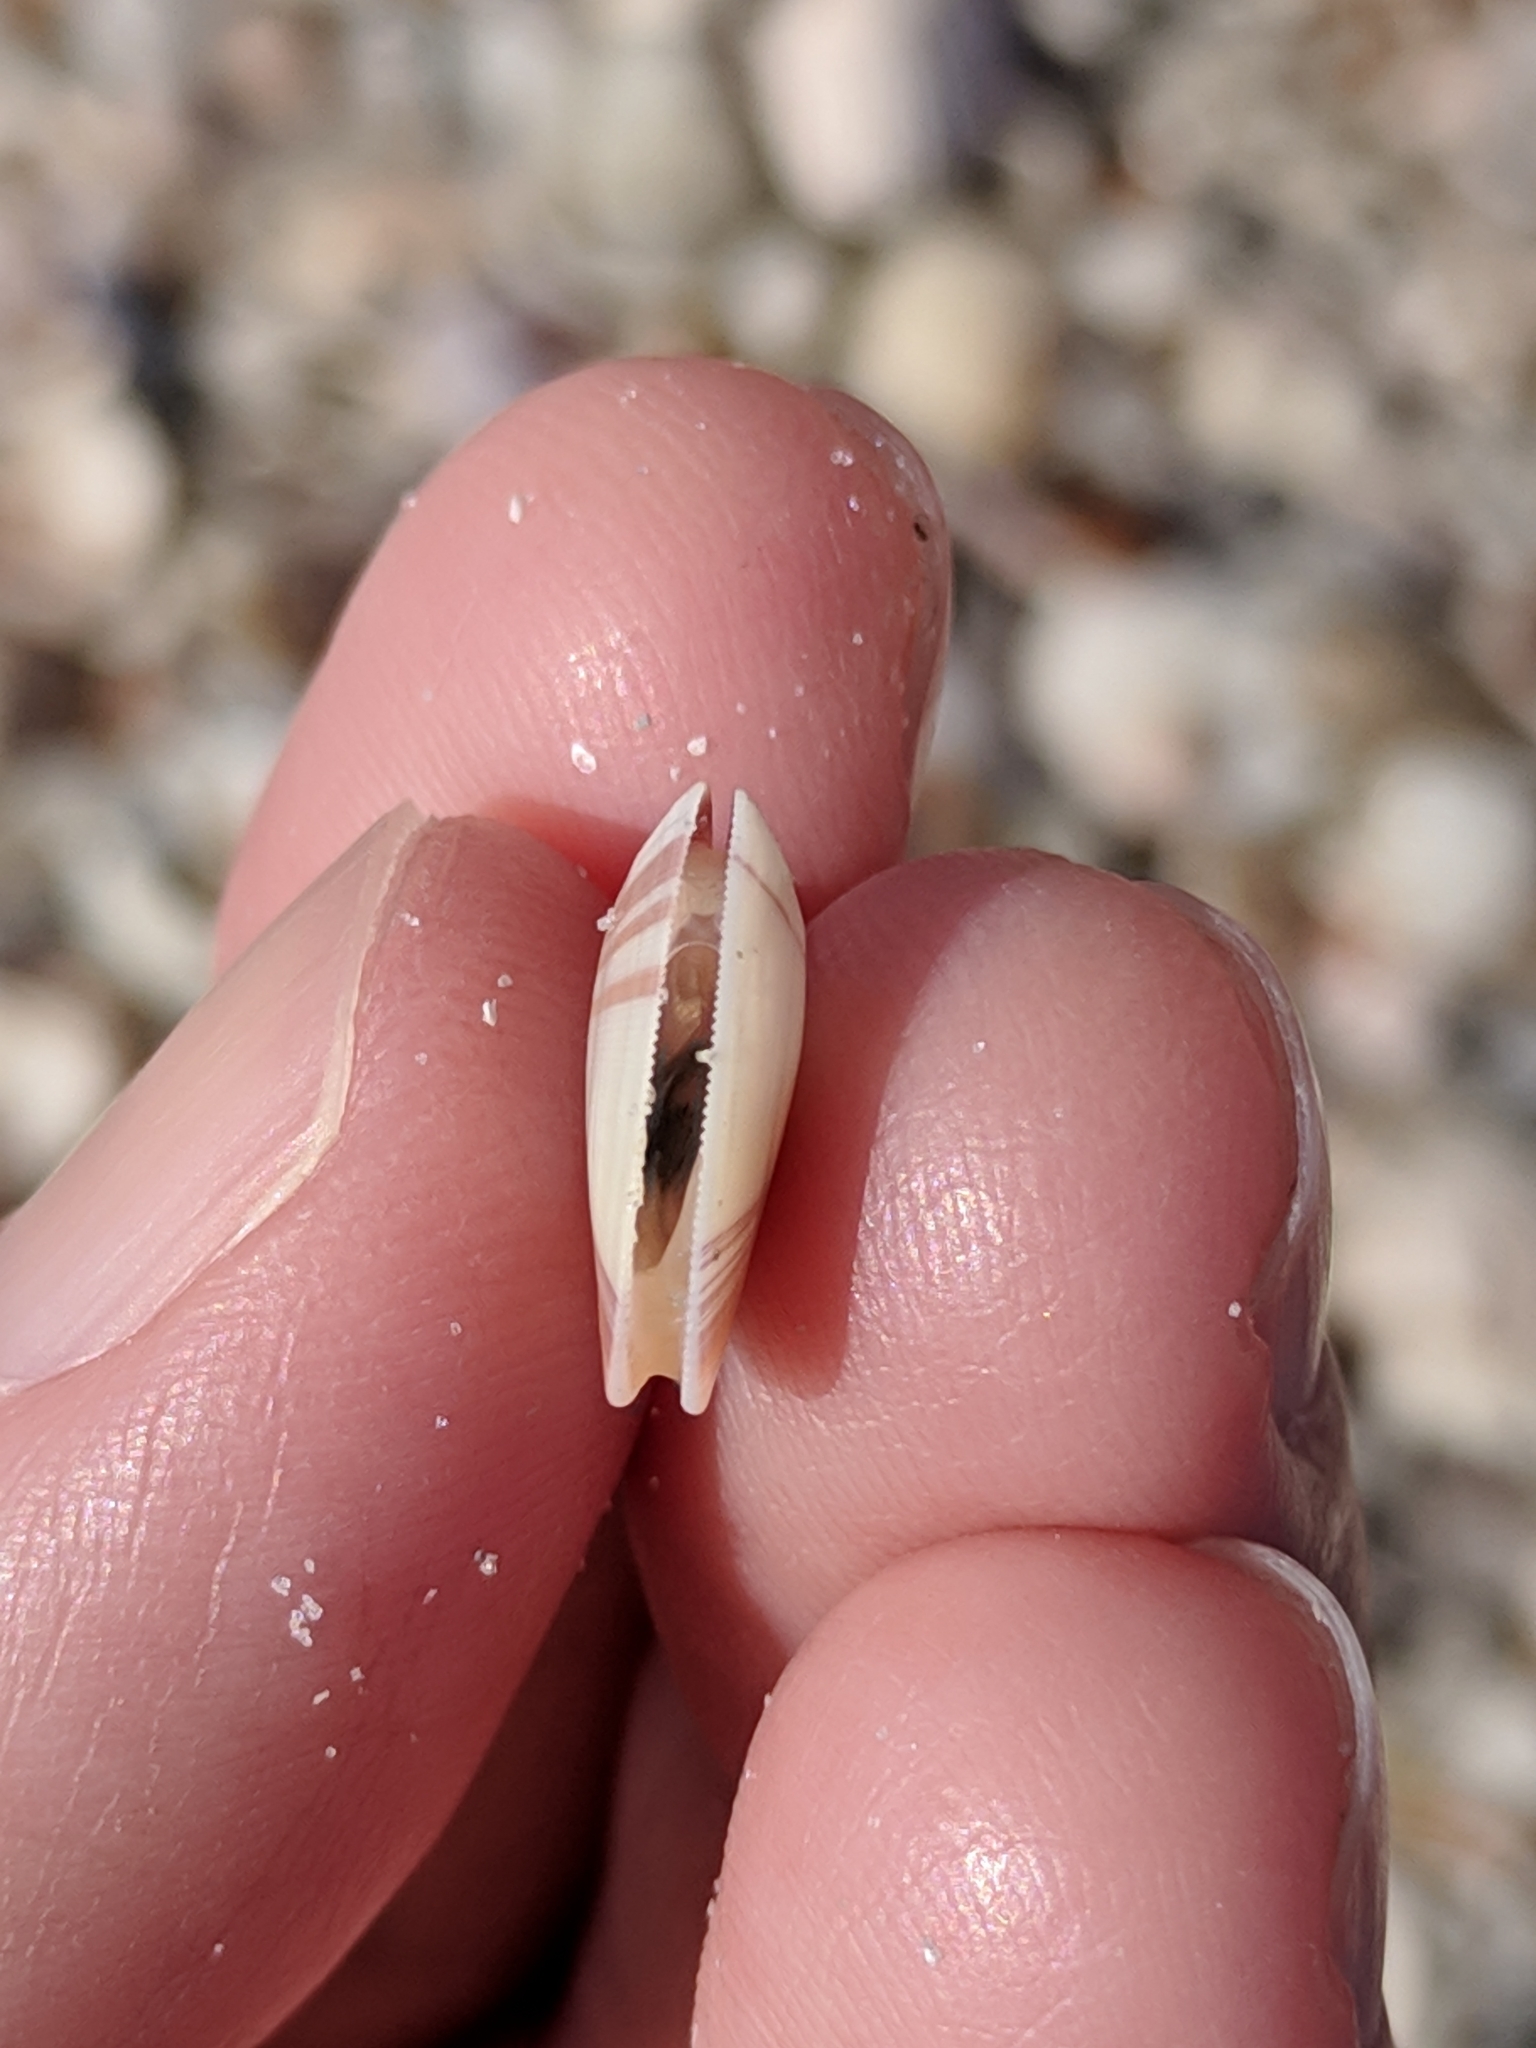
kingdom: Animalia
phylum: Mollusca
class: Bivalvia
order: Cardiida
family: Donacidae
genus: Donax
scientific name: Donax variabilis
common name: Butterfly shell
